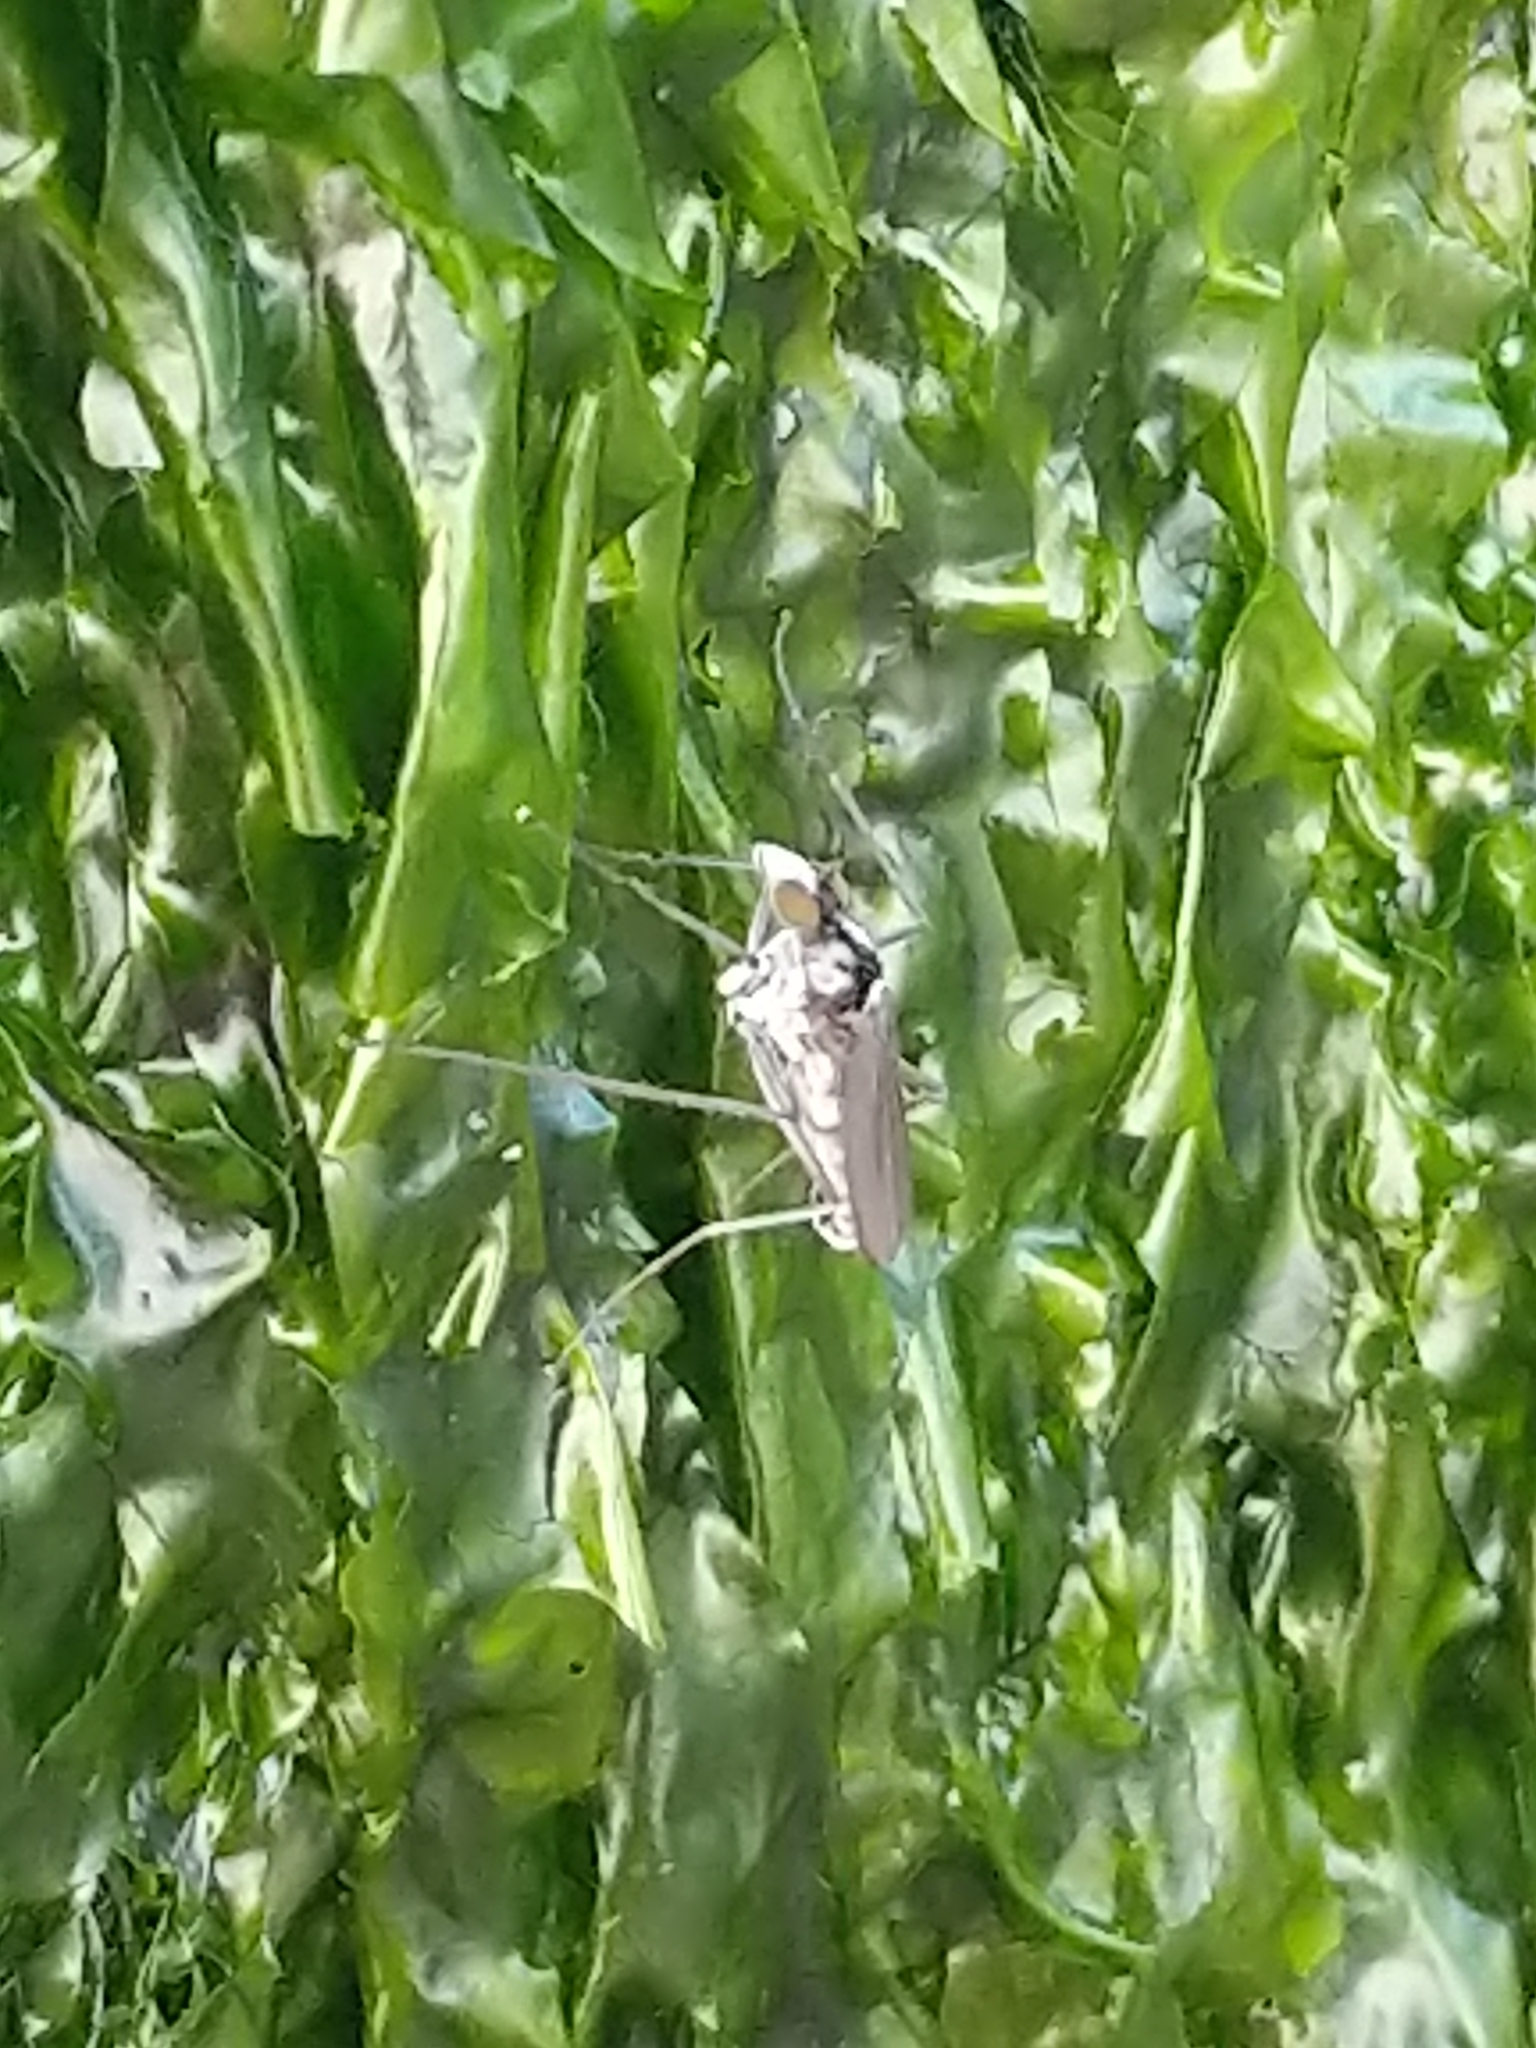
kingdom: Animalia
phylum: Arthropoda
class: Insecta
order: Diptera
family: Dolichopodidae
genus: Thambemyia
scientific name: Thambemyia borealis
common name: Fly
